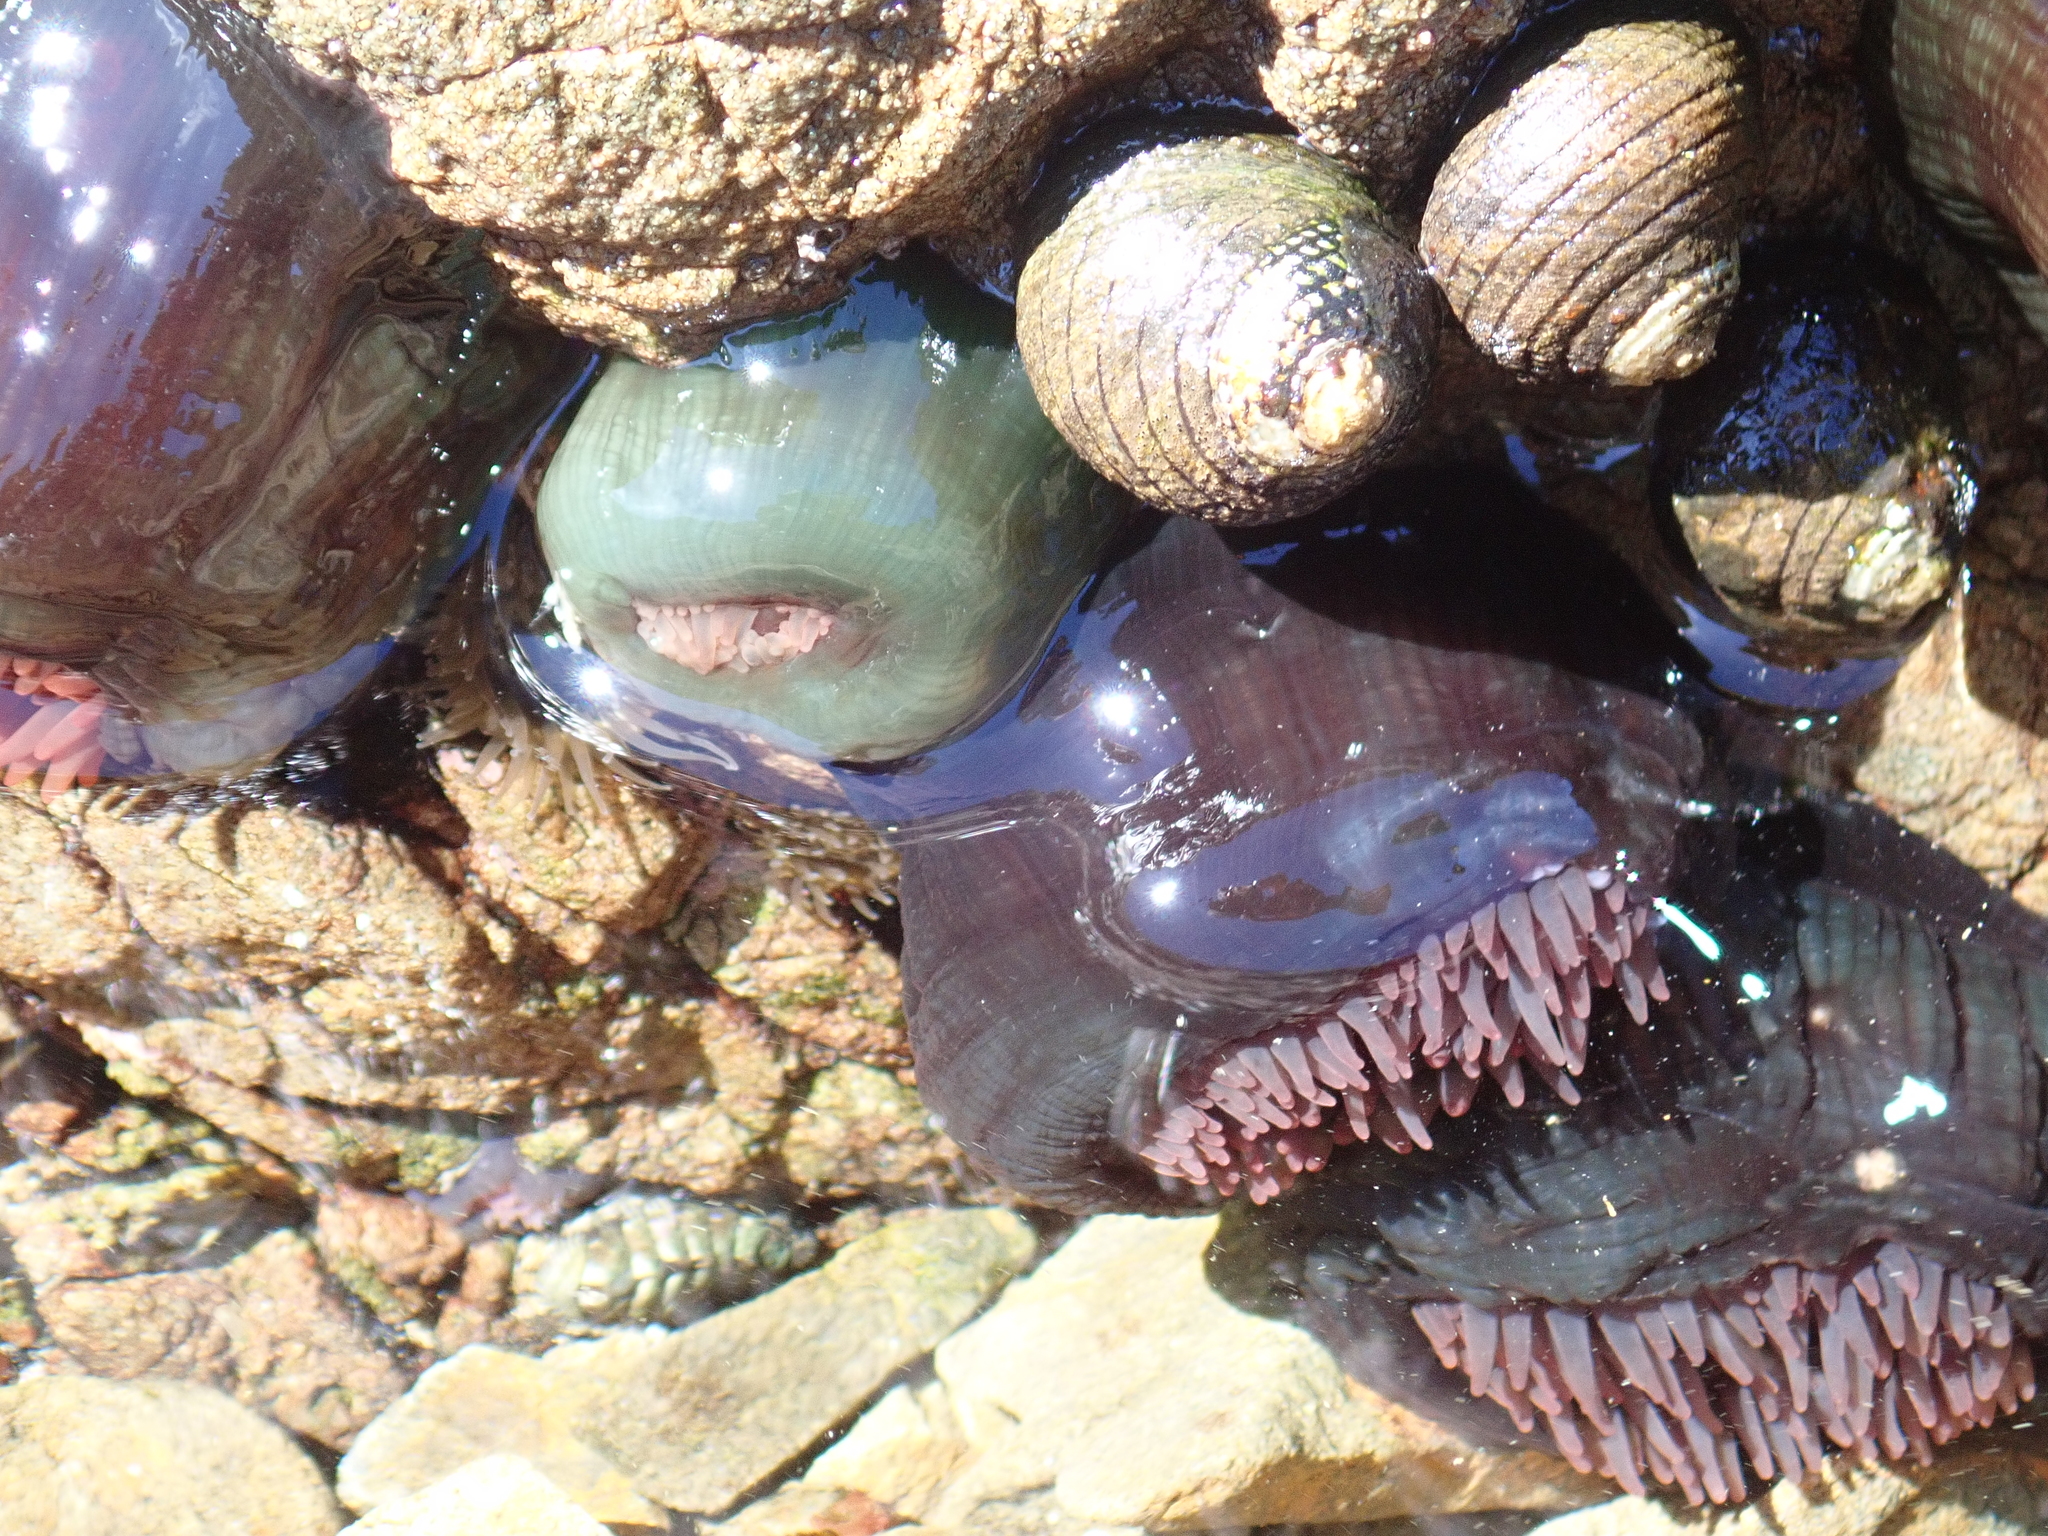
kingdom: Animalia
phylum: Cnidaria
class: Anthozoa
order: Actiniaria
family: Actiniidae
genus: Actinia
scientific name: Actinia tenebrosa
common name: Waratah anemone
